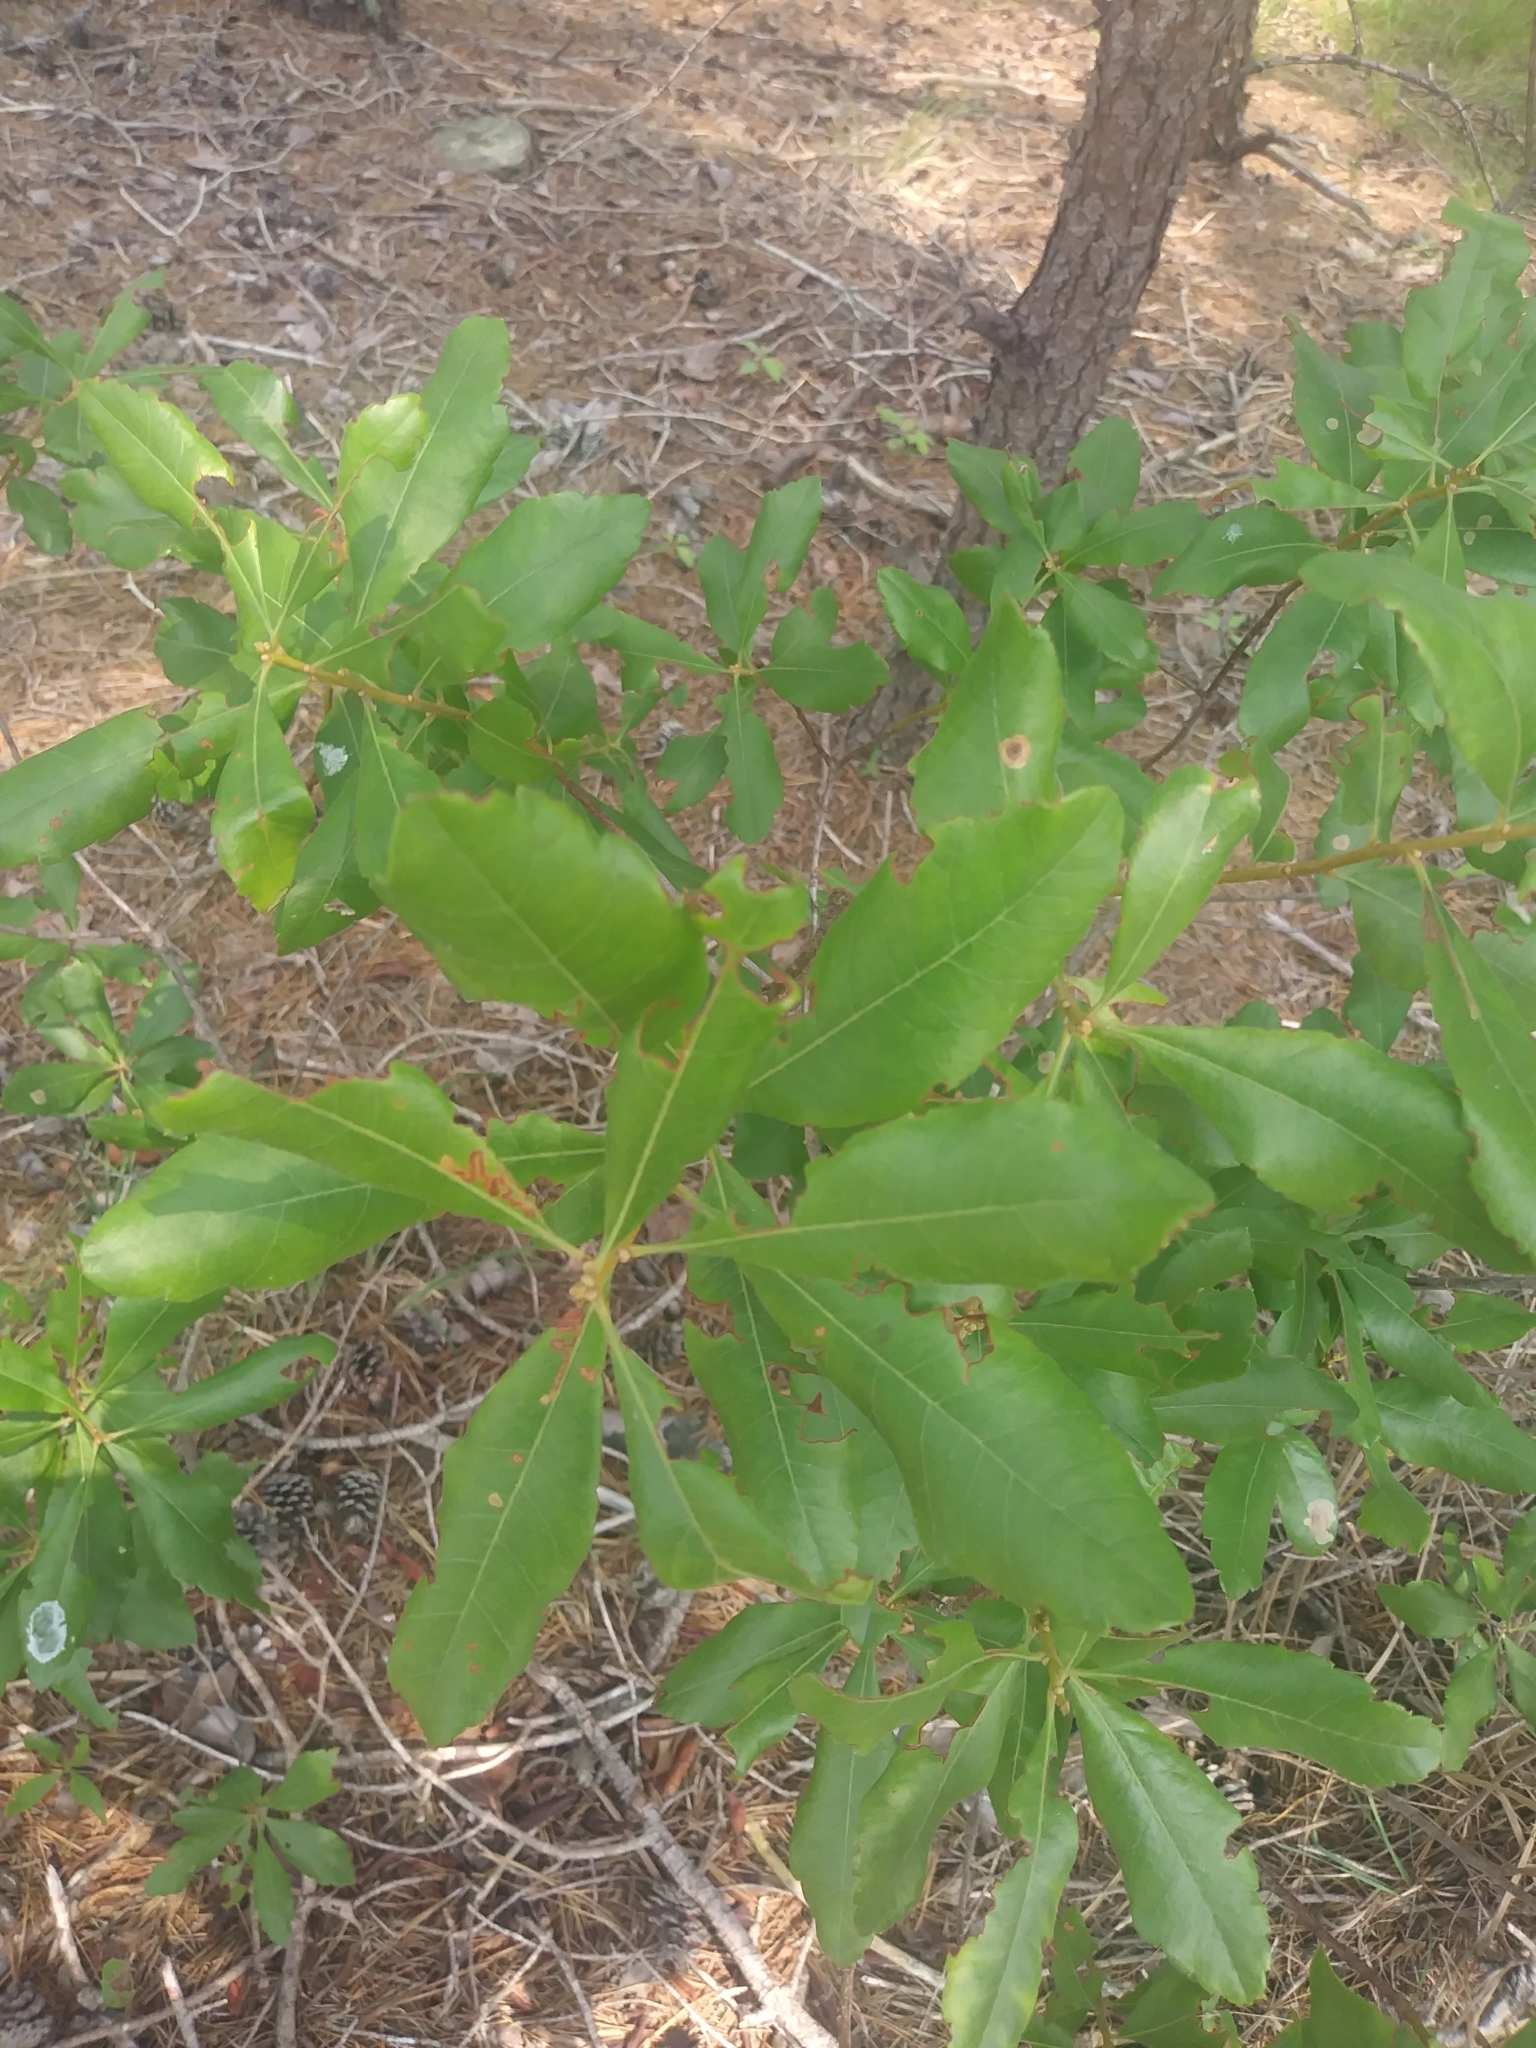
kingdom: Plantae
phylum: Tracheophyta
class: Magnoliopsida
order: Fagales
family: Myricaceae
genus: Morella
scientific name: Morella pensylvanica
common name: Northern bayberry
